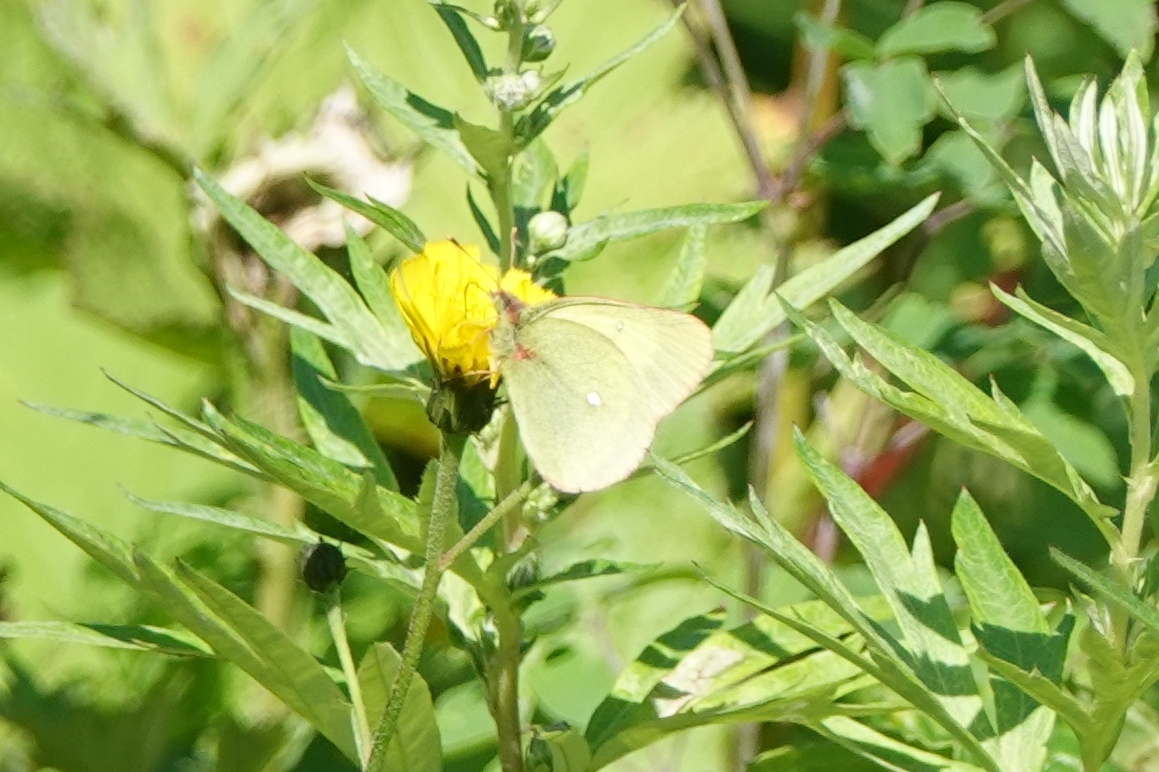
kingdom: Animalia
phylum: Arthropoda
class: Insecta
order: Lepidoptera
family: Pieridae
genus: Colias
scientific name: Colias palaeno
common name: Moorland clouded yellow
